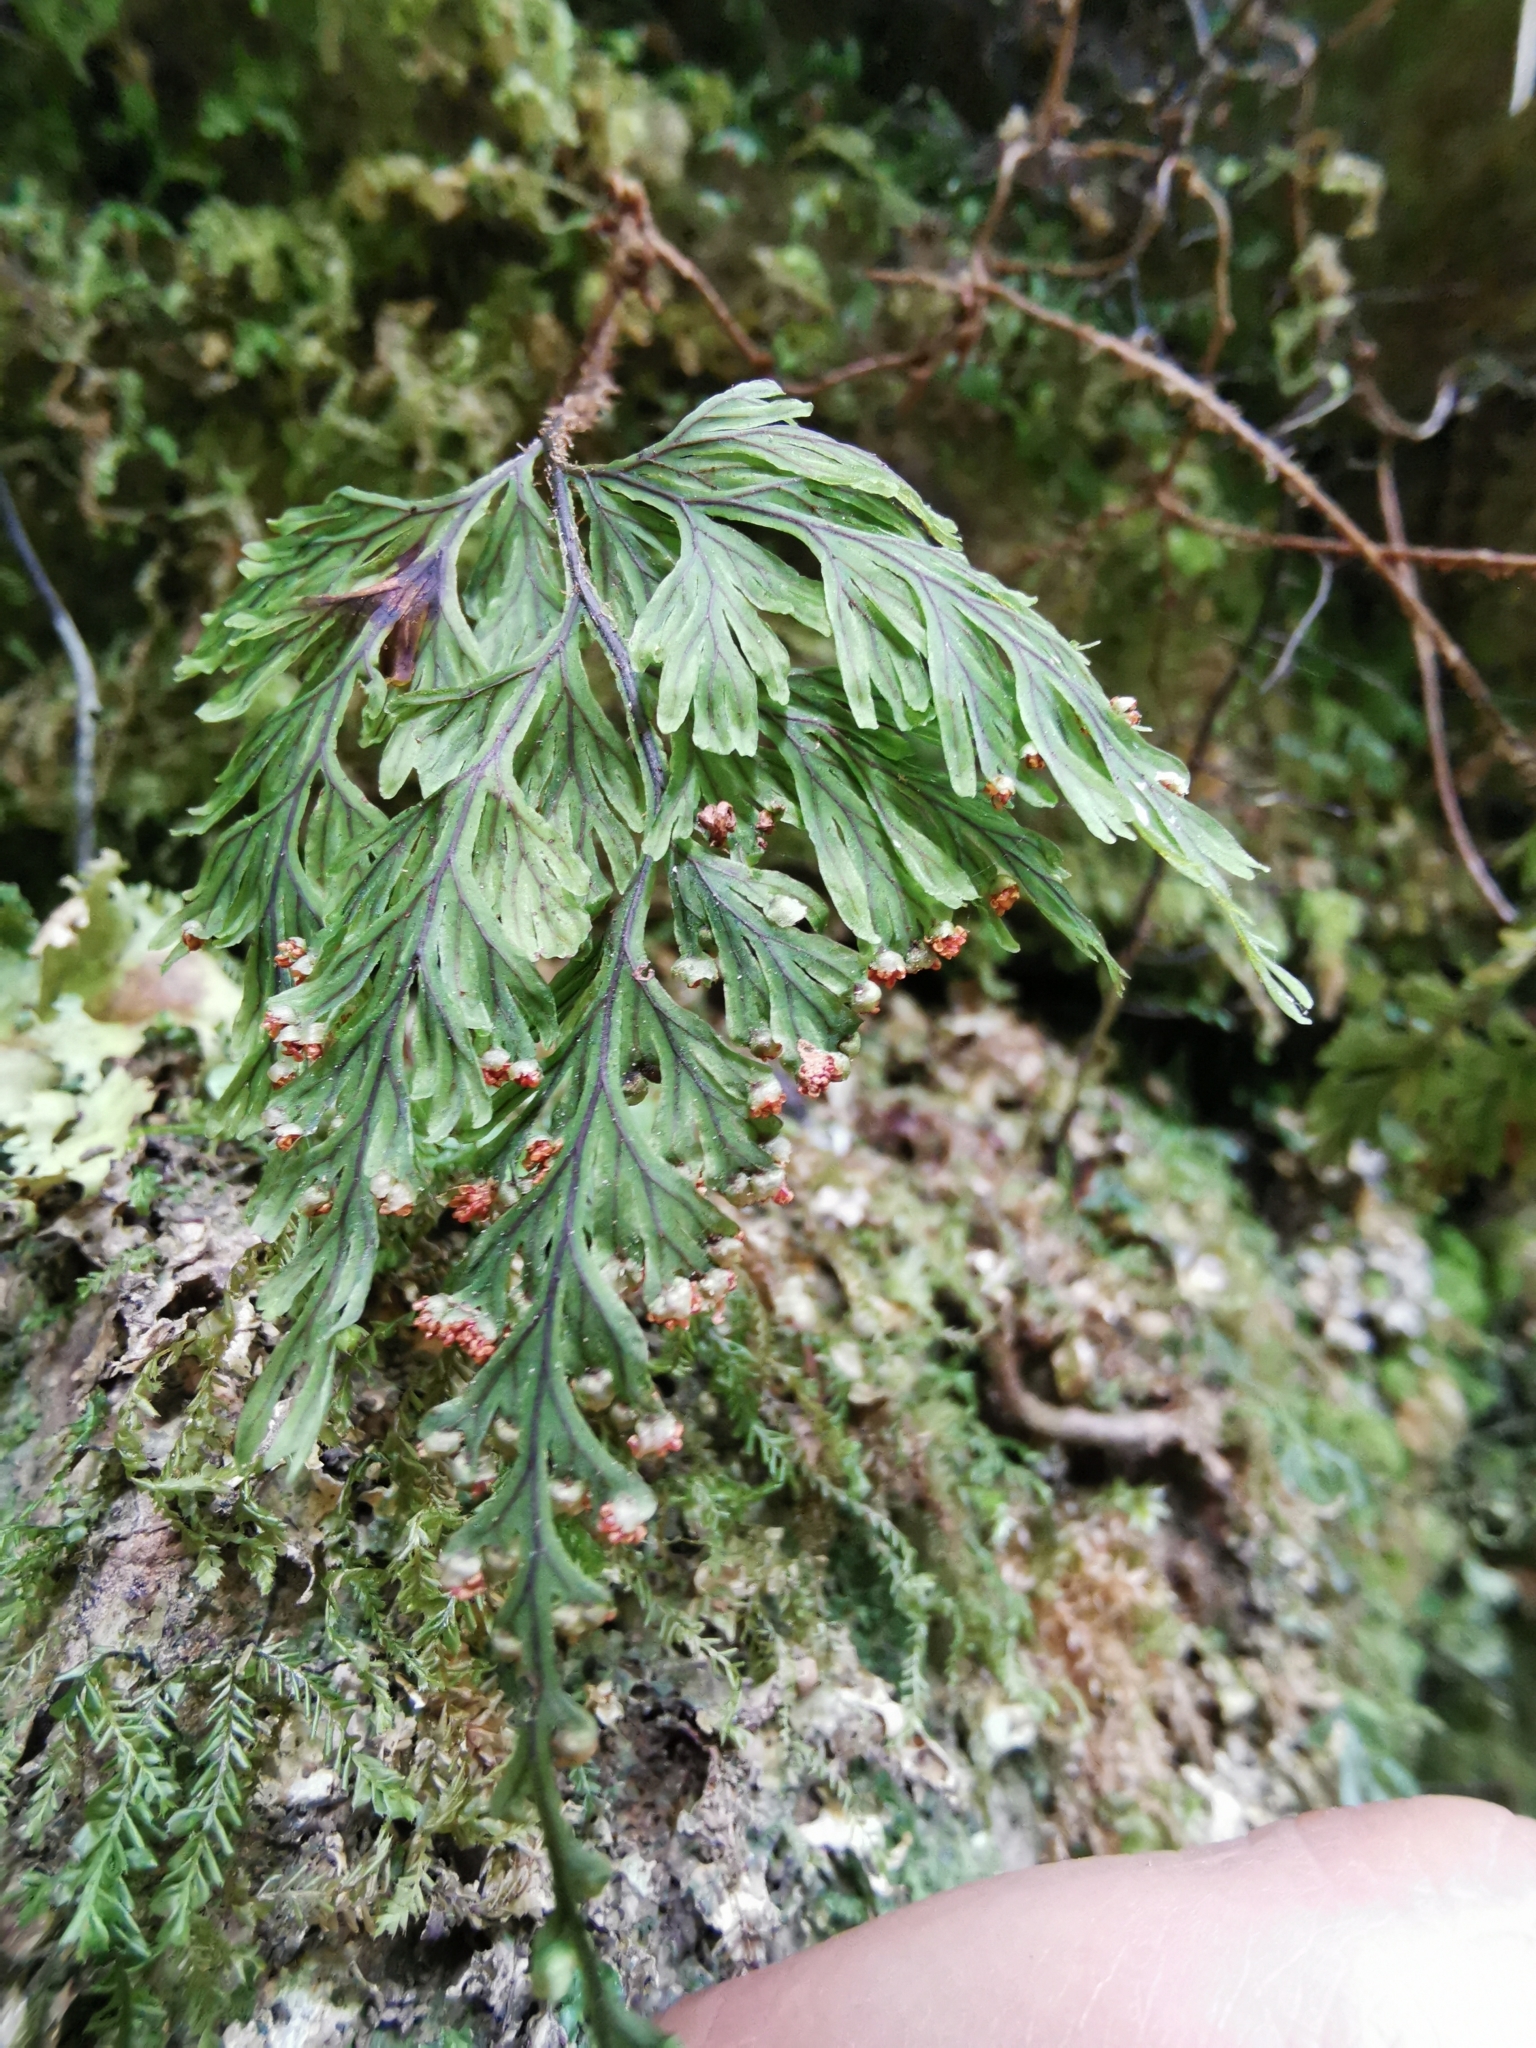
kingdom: Plantae
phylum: Tracheophyta
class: Polypodiopsida
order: Hymenophyllales
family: Hymenophyllaceae
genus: Hymenophyllum
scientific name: Hymenophyllum scabrum
